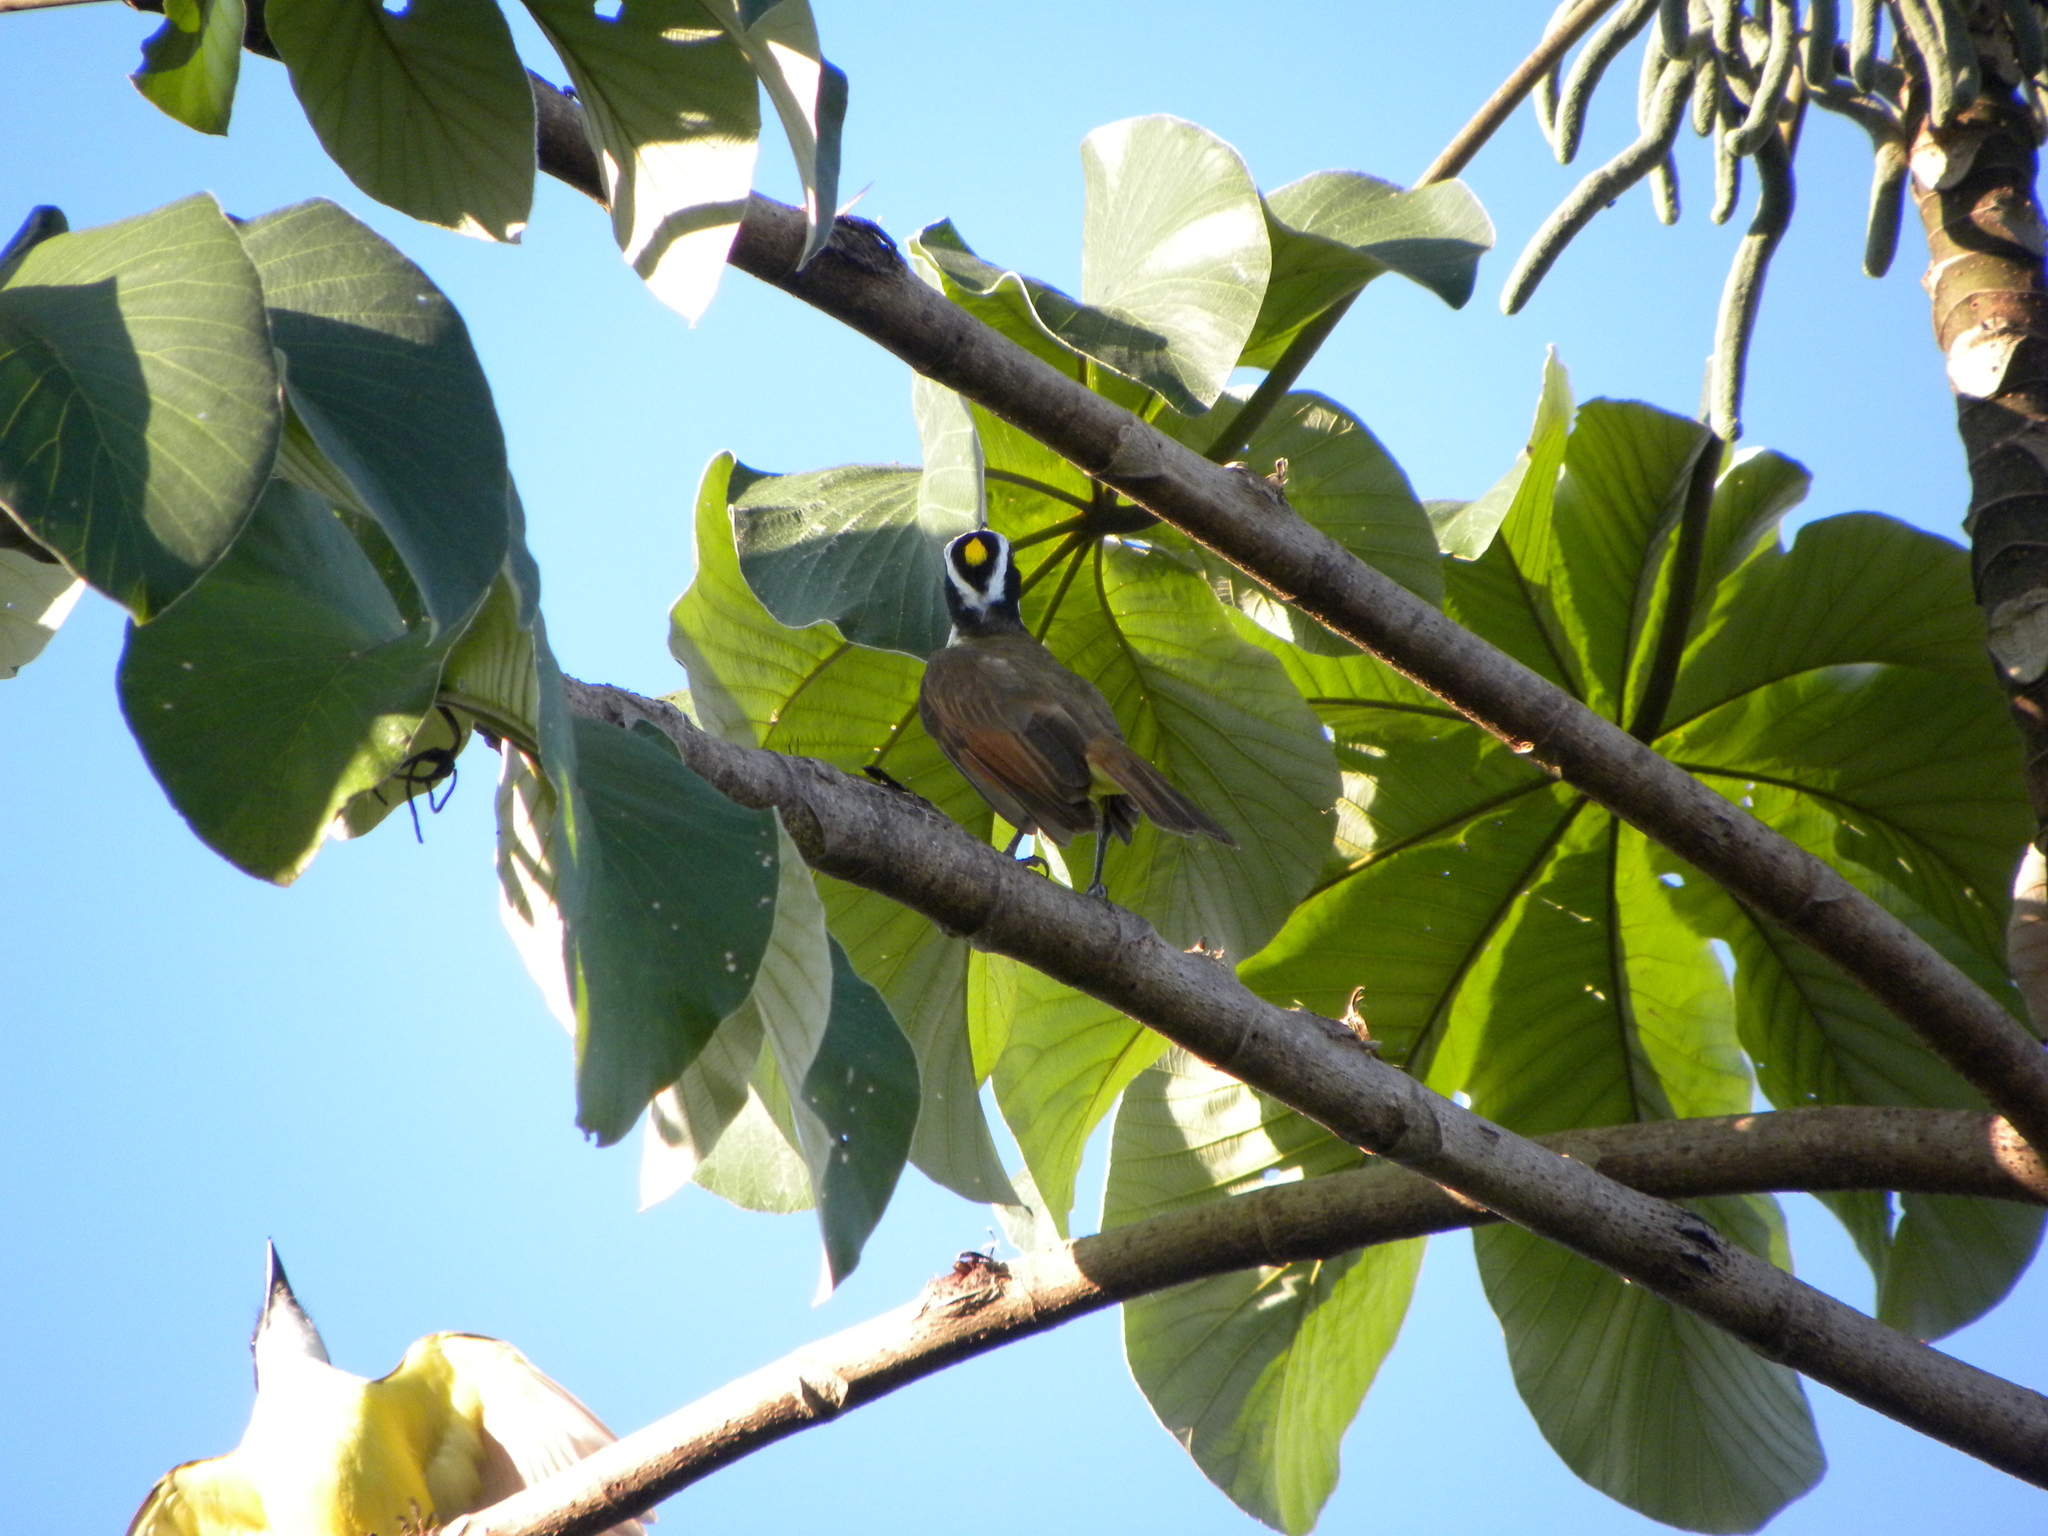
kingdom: Animalia
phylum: Chordata
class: Aves
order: Passeriformes
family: Tyrannidae
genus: Pitangus
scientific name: Pitangus sulphuratus
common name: Great kiskadee
